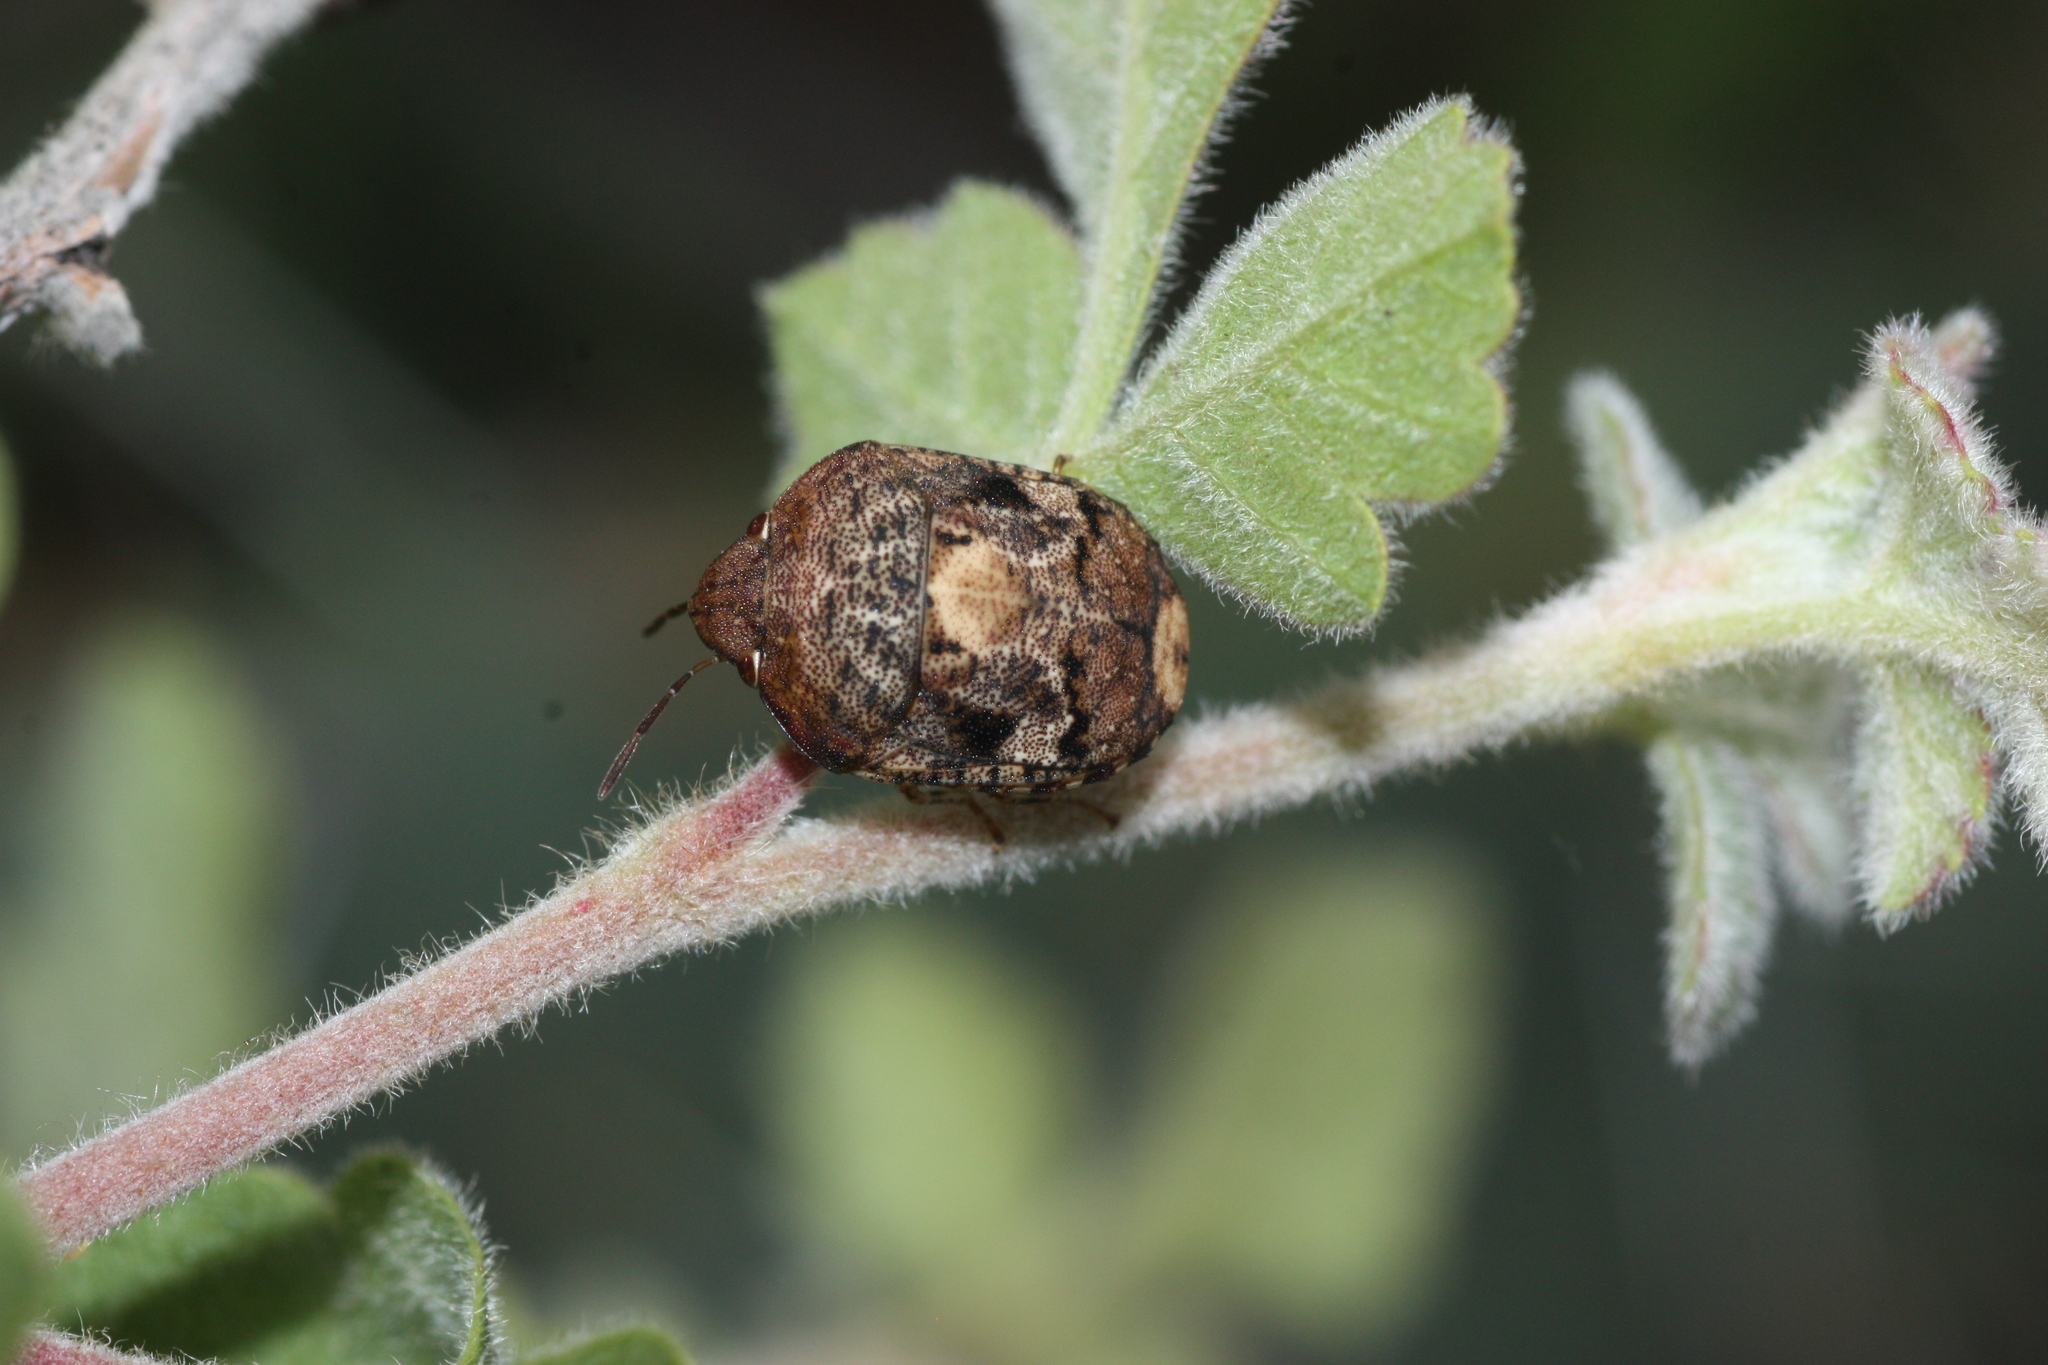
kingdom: Animalia
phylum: Arthropoda
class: Insecta
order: Hemiptera
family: Scutelleridae
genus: Stethaulax
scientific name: Stethaulax marmoratus
